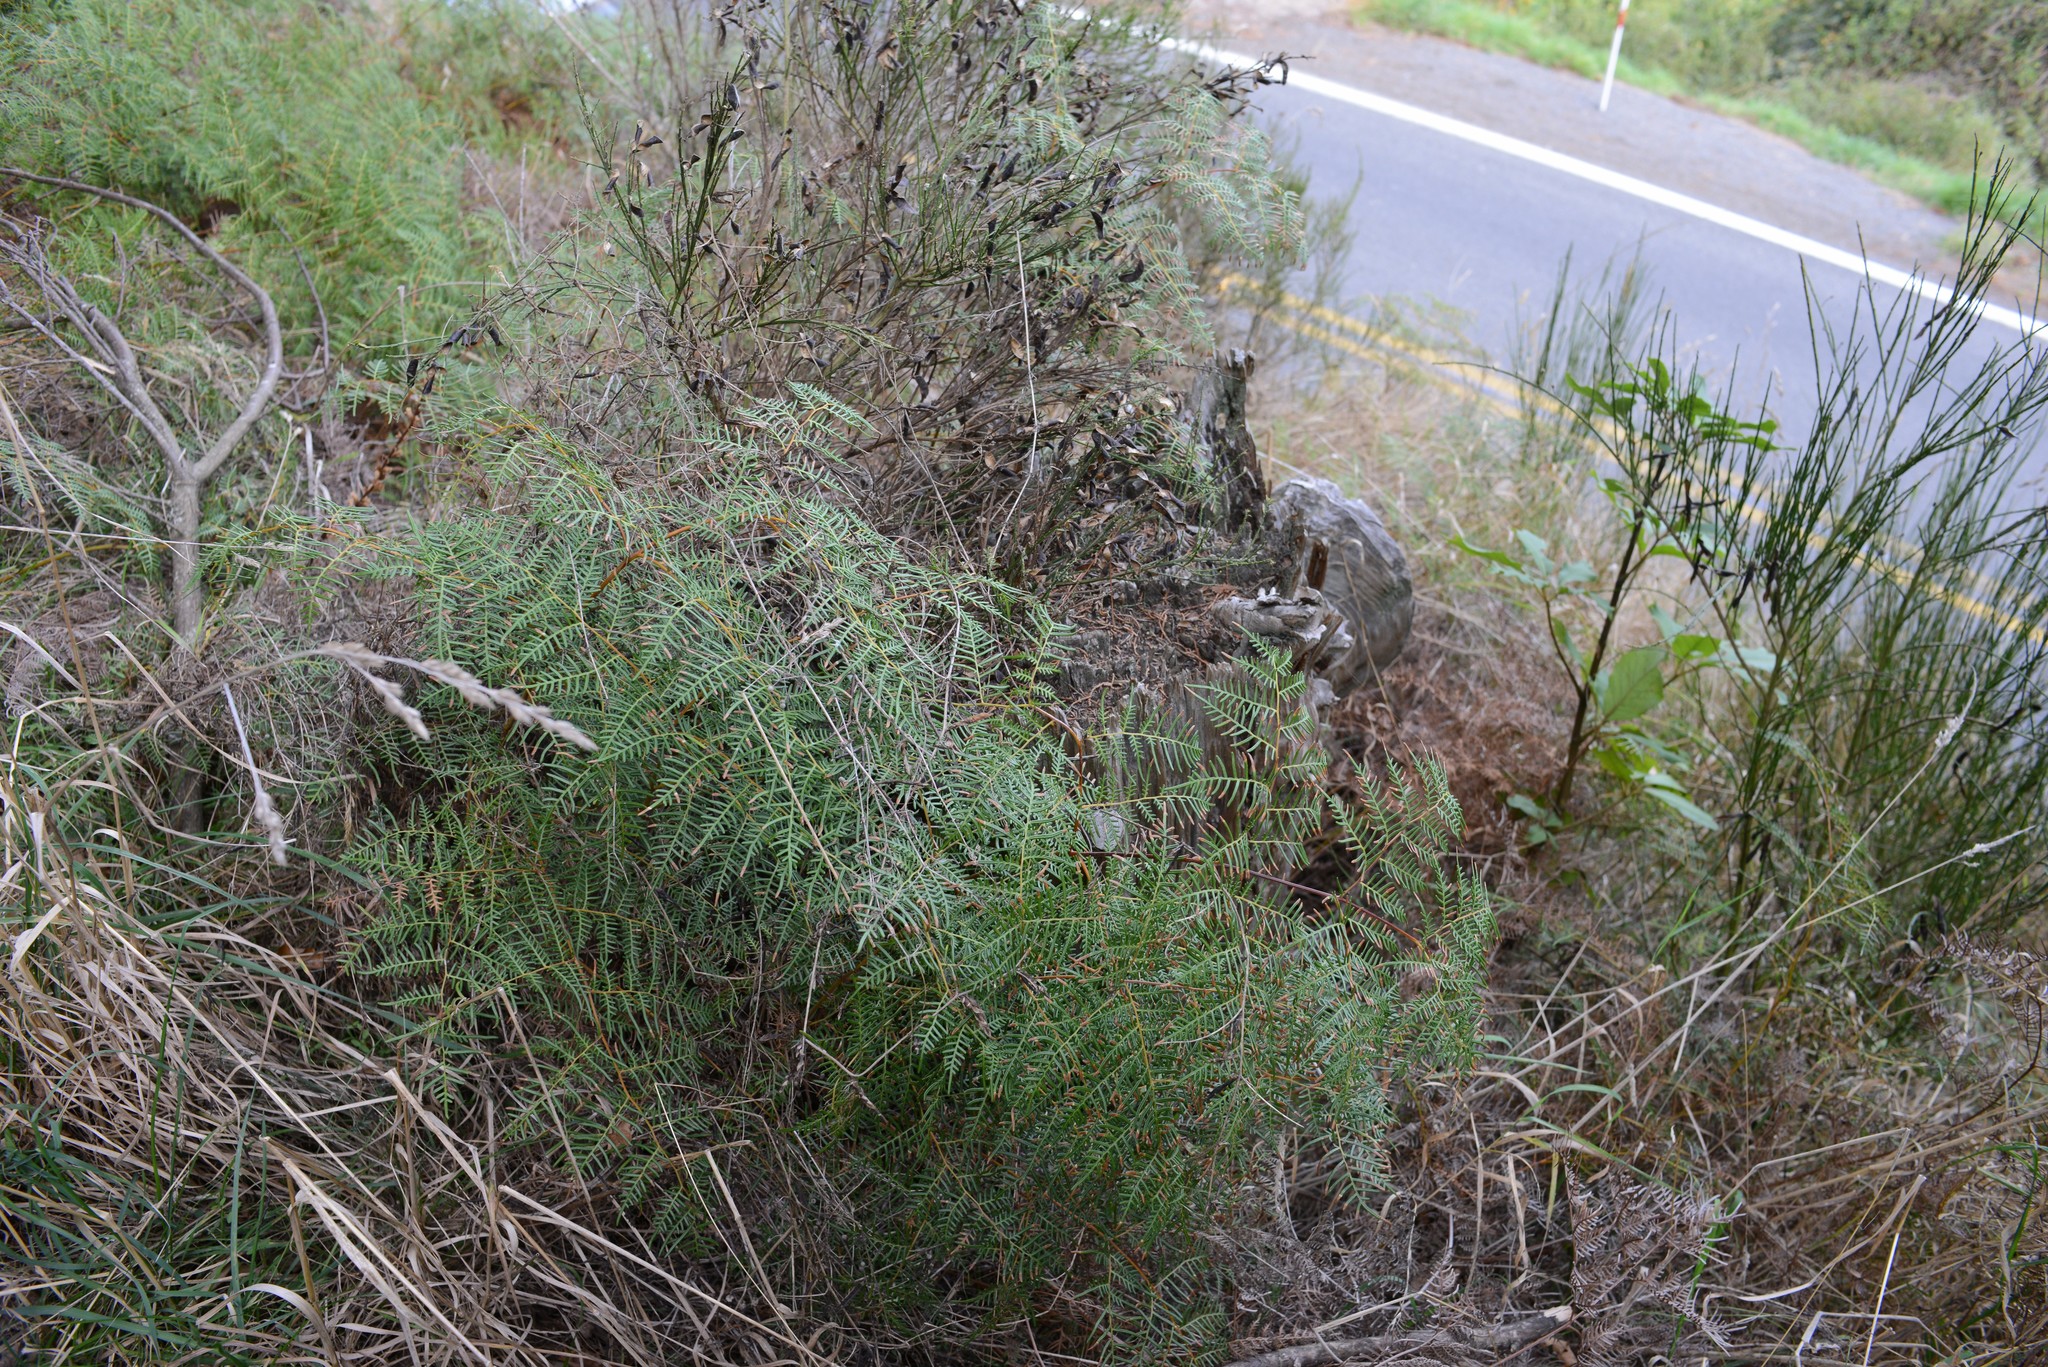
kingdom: Plantae
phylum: Tracheophyta
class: Polypodiopsida
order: Polypodiales
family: Dennstaedtiaceae
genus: Pteridium
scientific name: Pteridium esculentum
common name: Bracken fern
